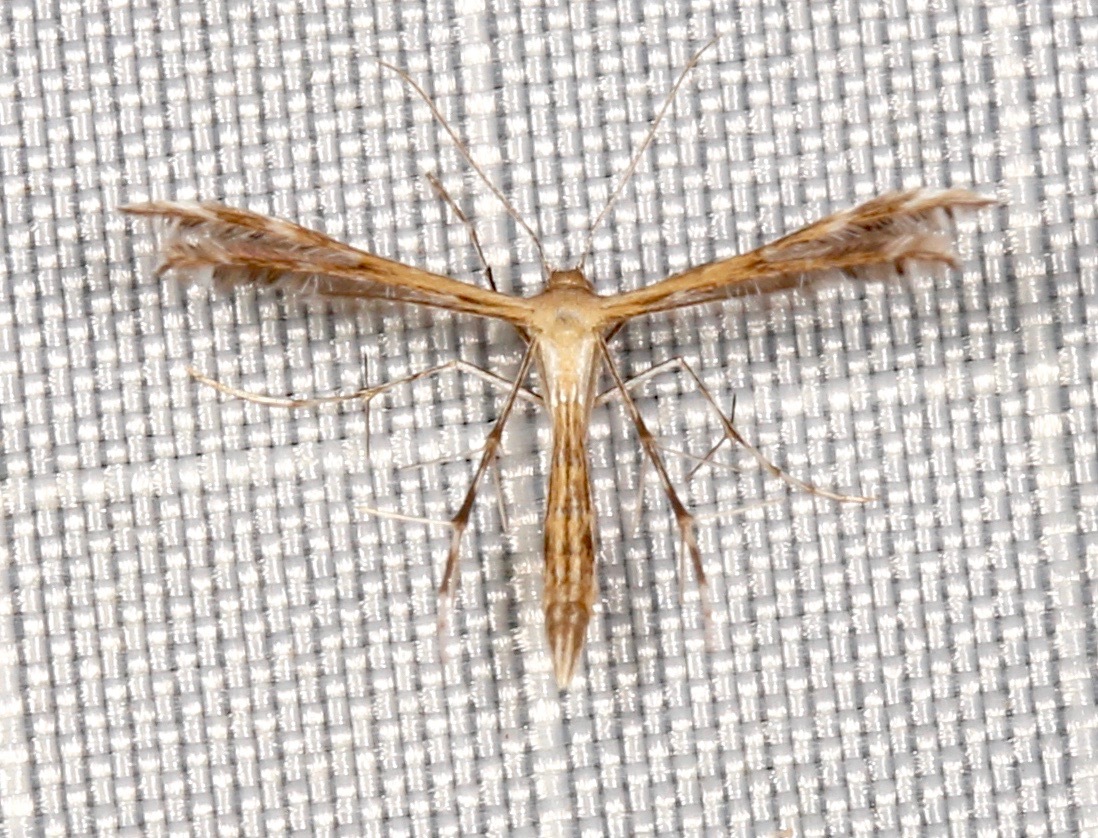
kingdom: Animalia
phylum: Arthropoda
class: Insecta
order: Lepidoptera
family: Pterophoridae
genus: Buckleria
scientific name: Buckleria parvulus
